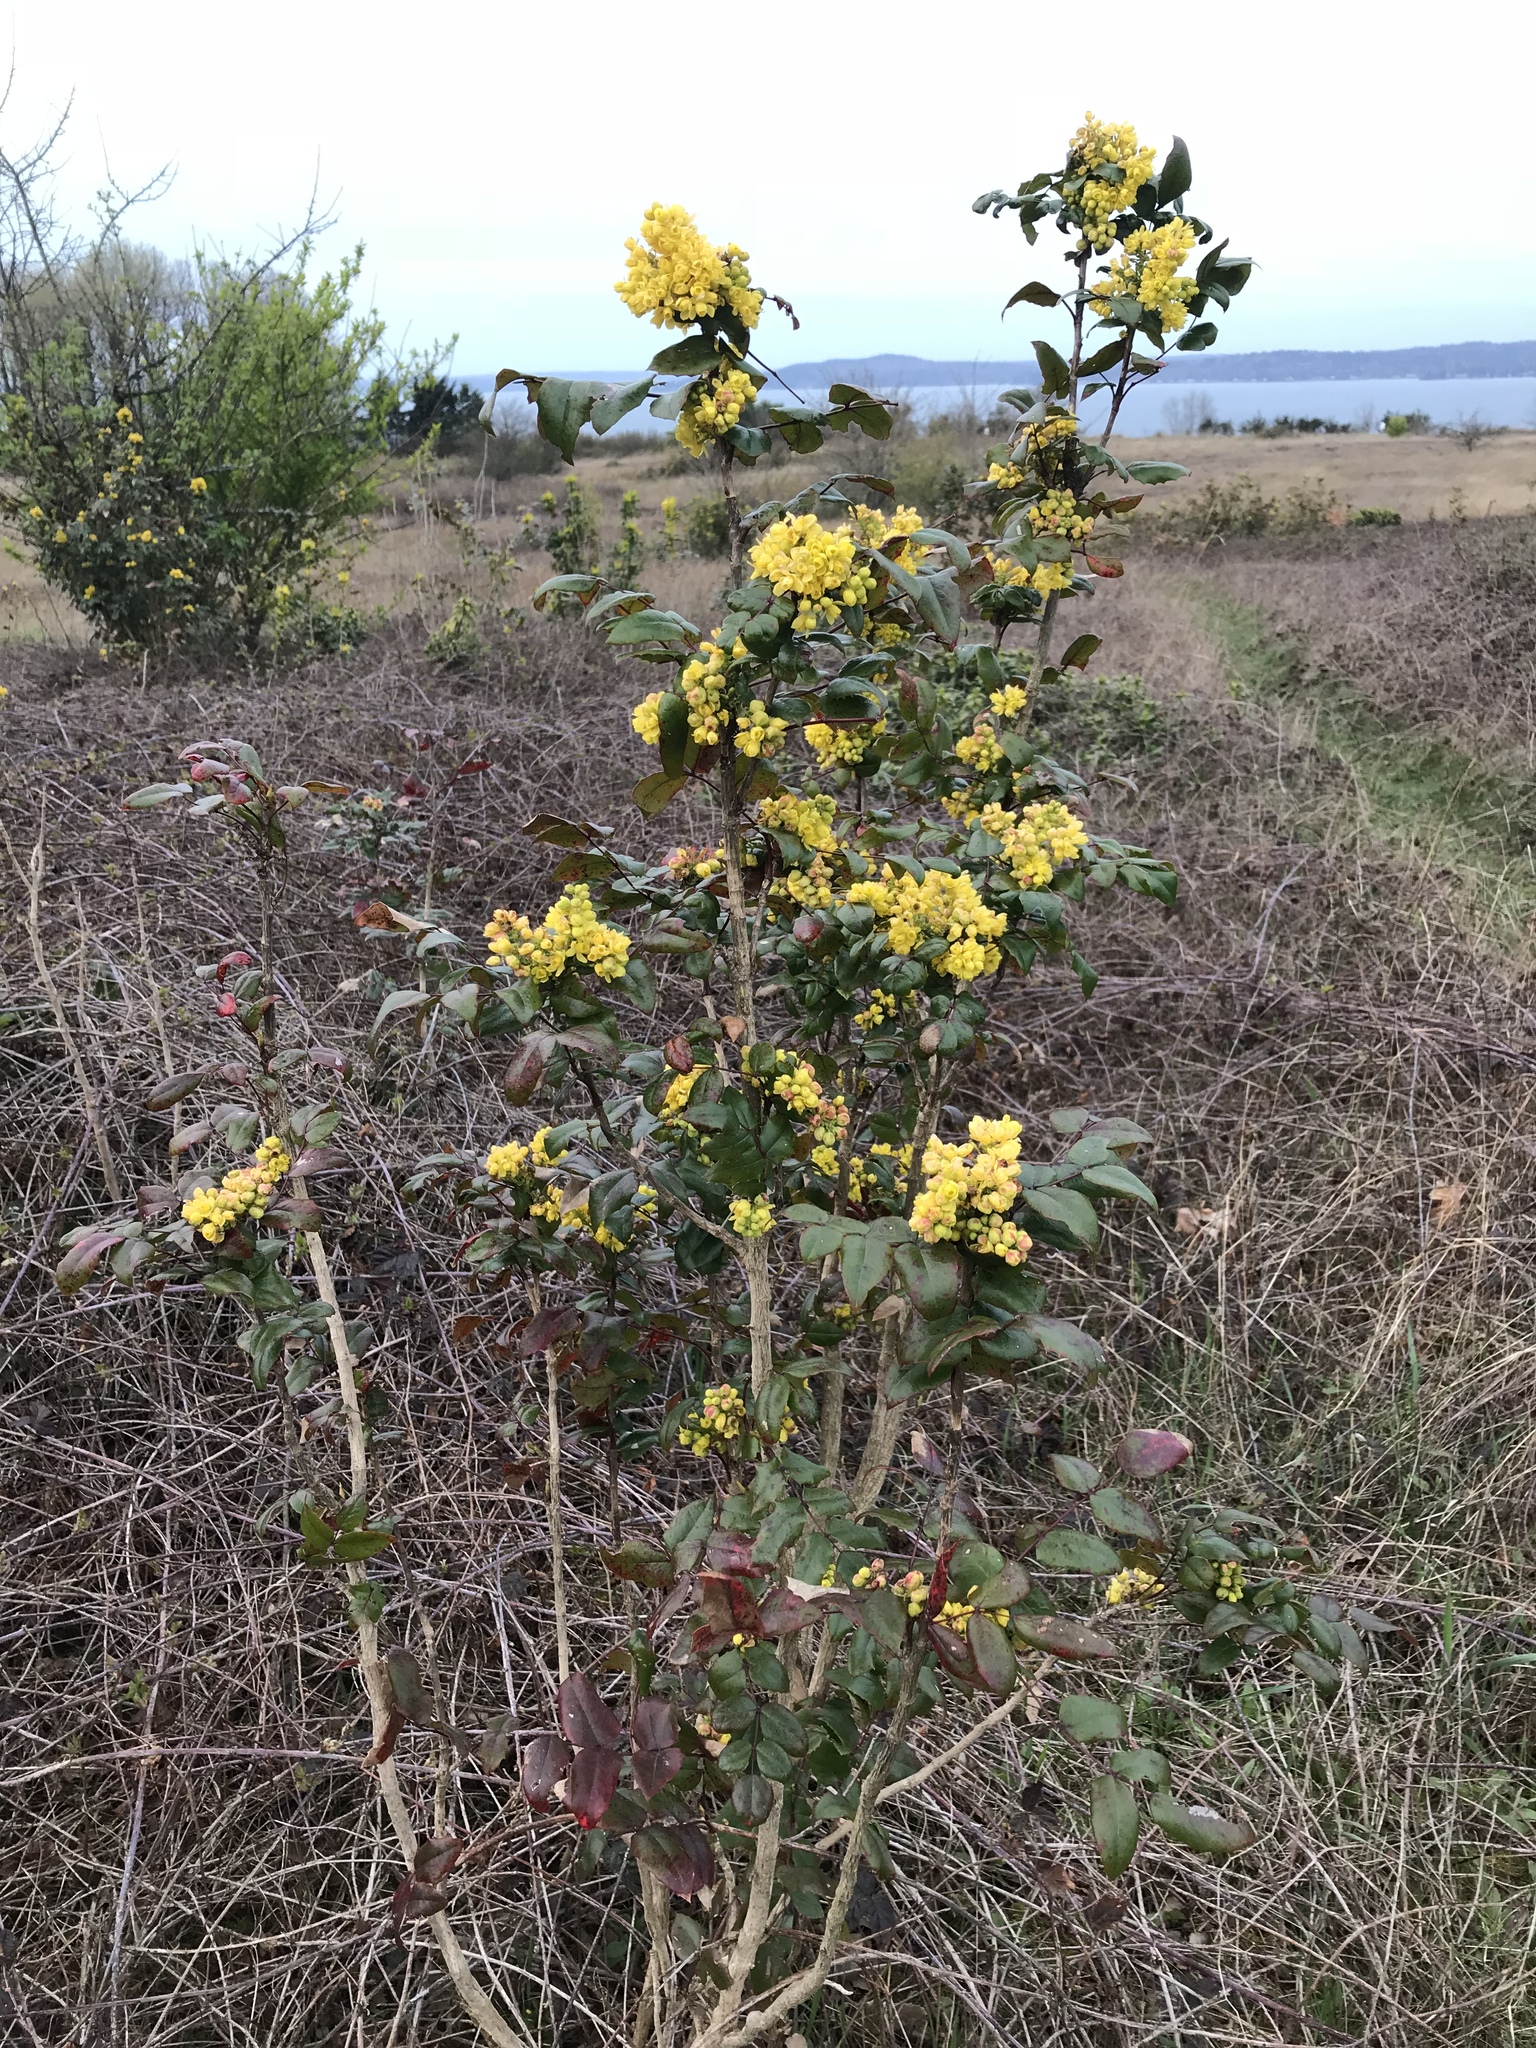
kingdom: Plantae
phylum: Tracheophyta
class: Magnoliopsida
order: Ranunculales
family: Berberidaceae
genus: Mahonia
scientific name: Mahonia aquifolium
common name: Oregon-grape
